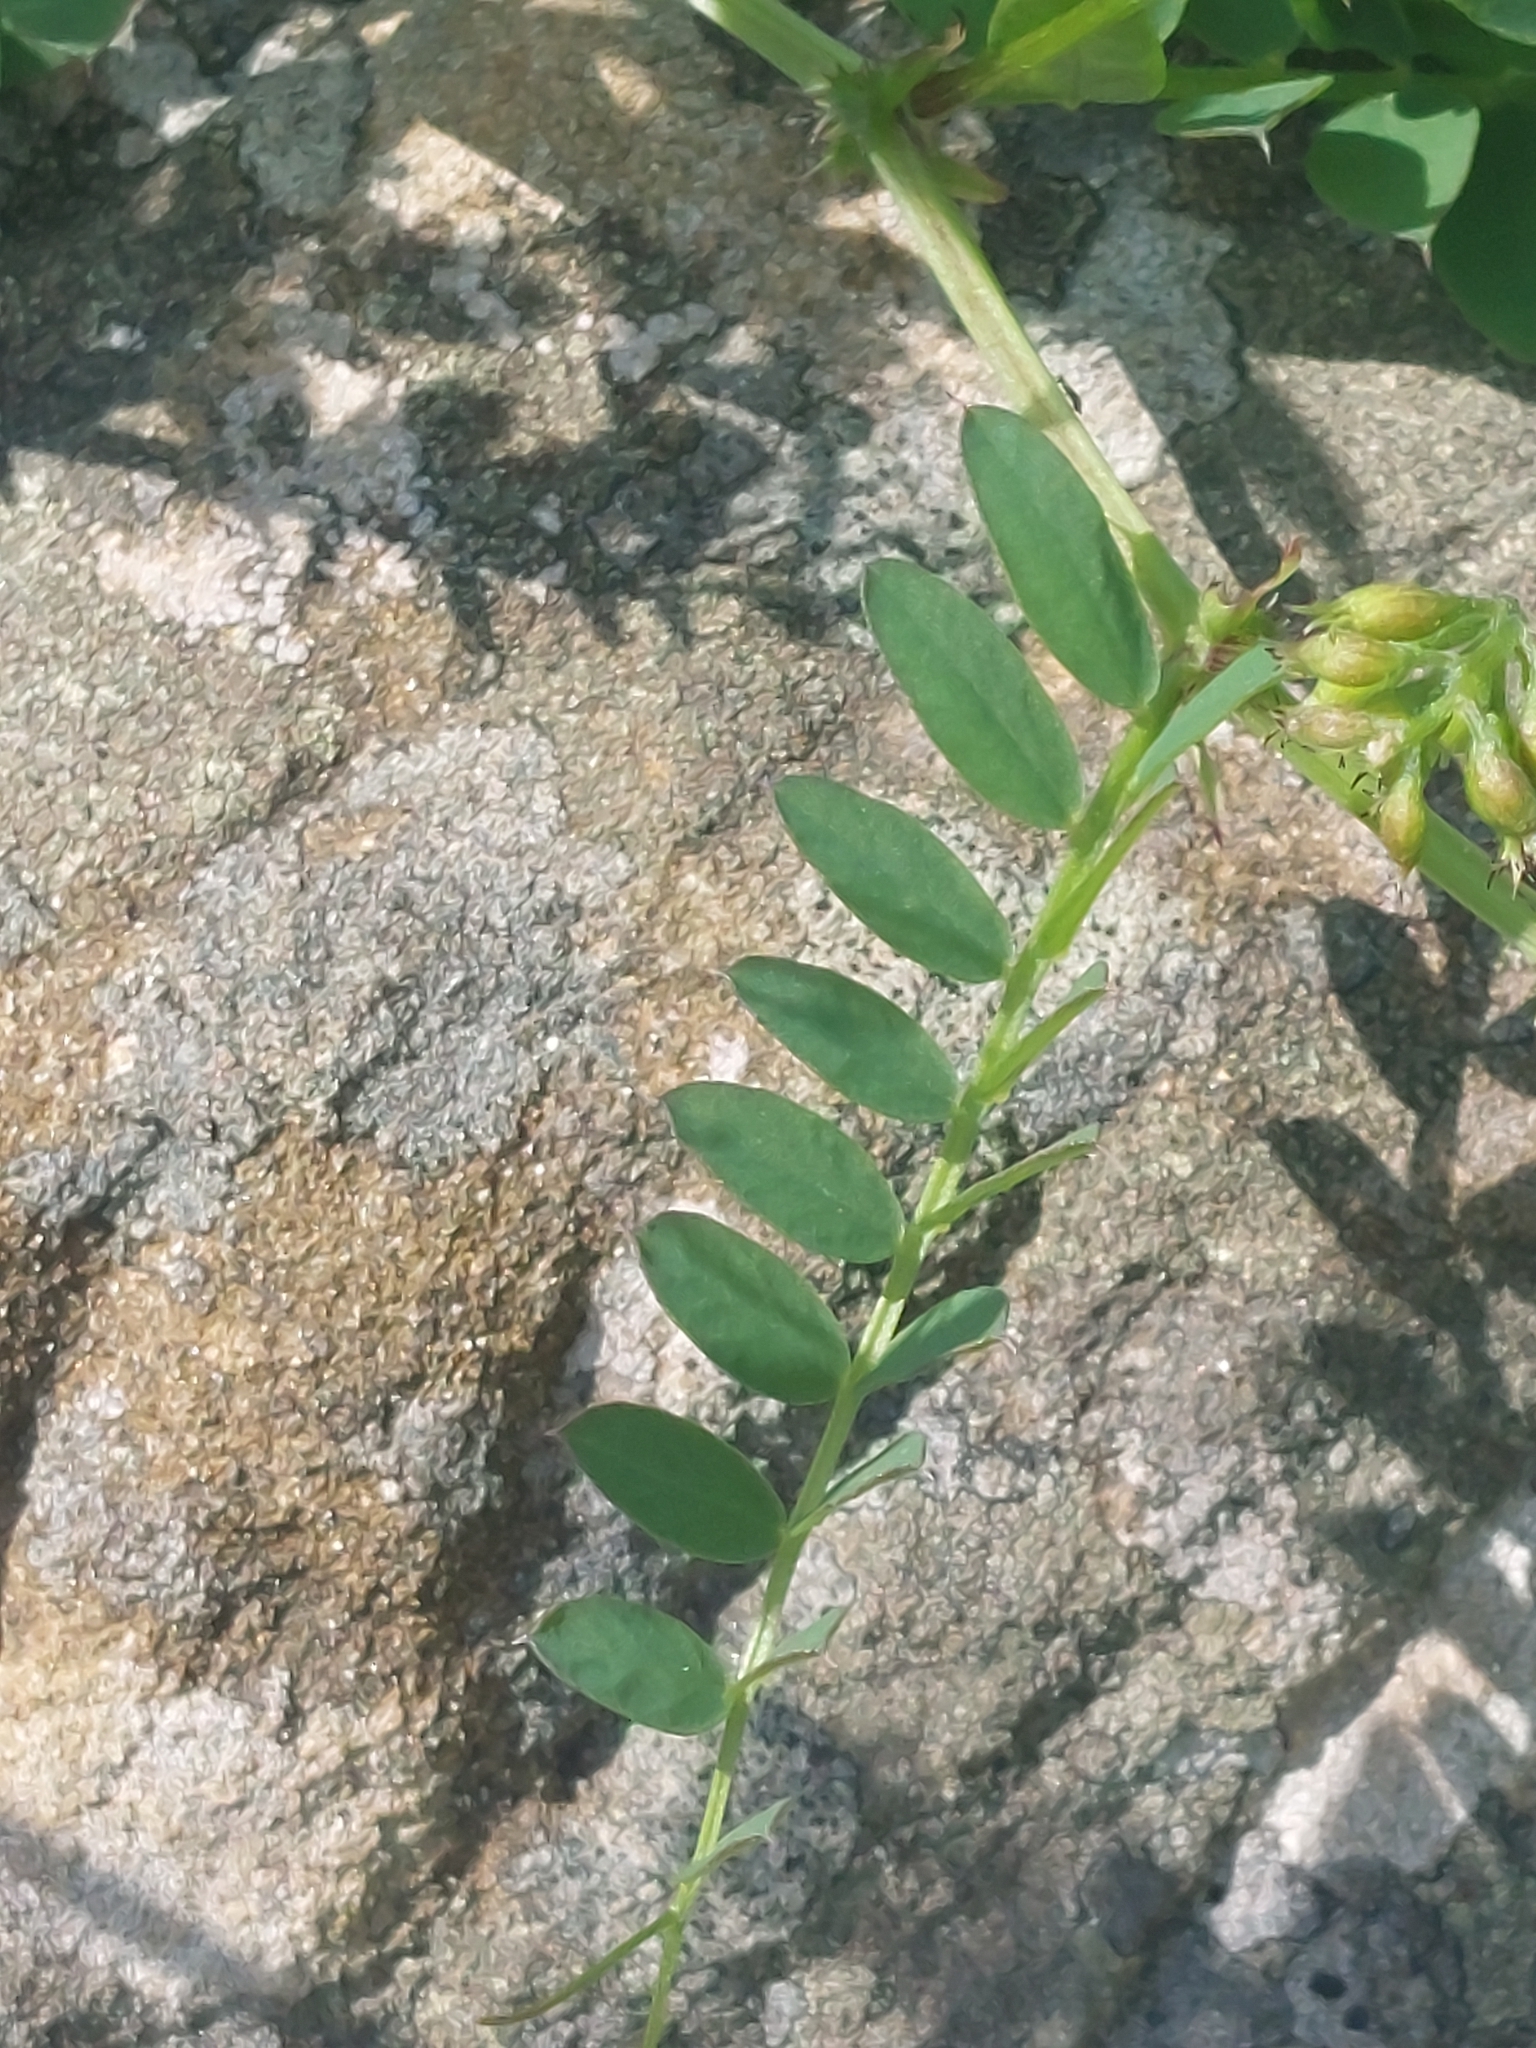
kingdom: Plantae
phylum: Tracheophyta
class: Magnoliopsida
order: Fabales
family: Fabaceae
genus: Vicia
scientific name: Vicia sylvatica
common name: Wood vetch
